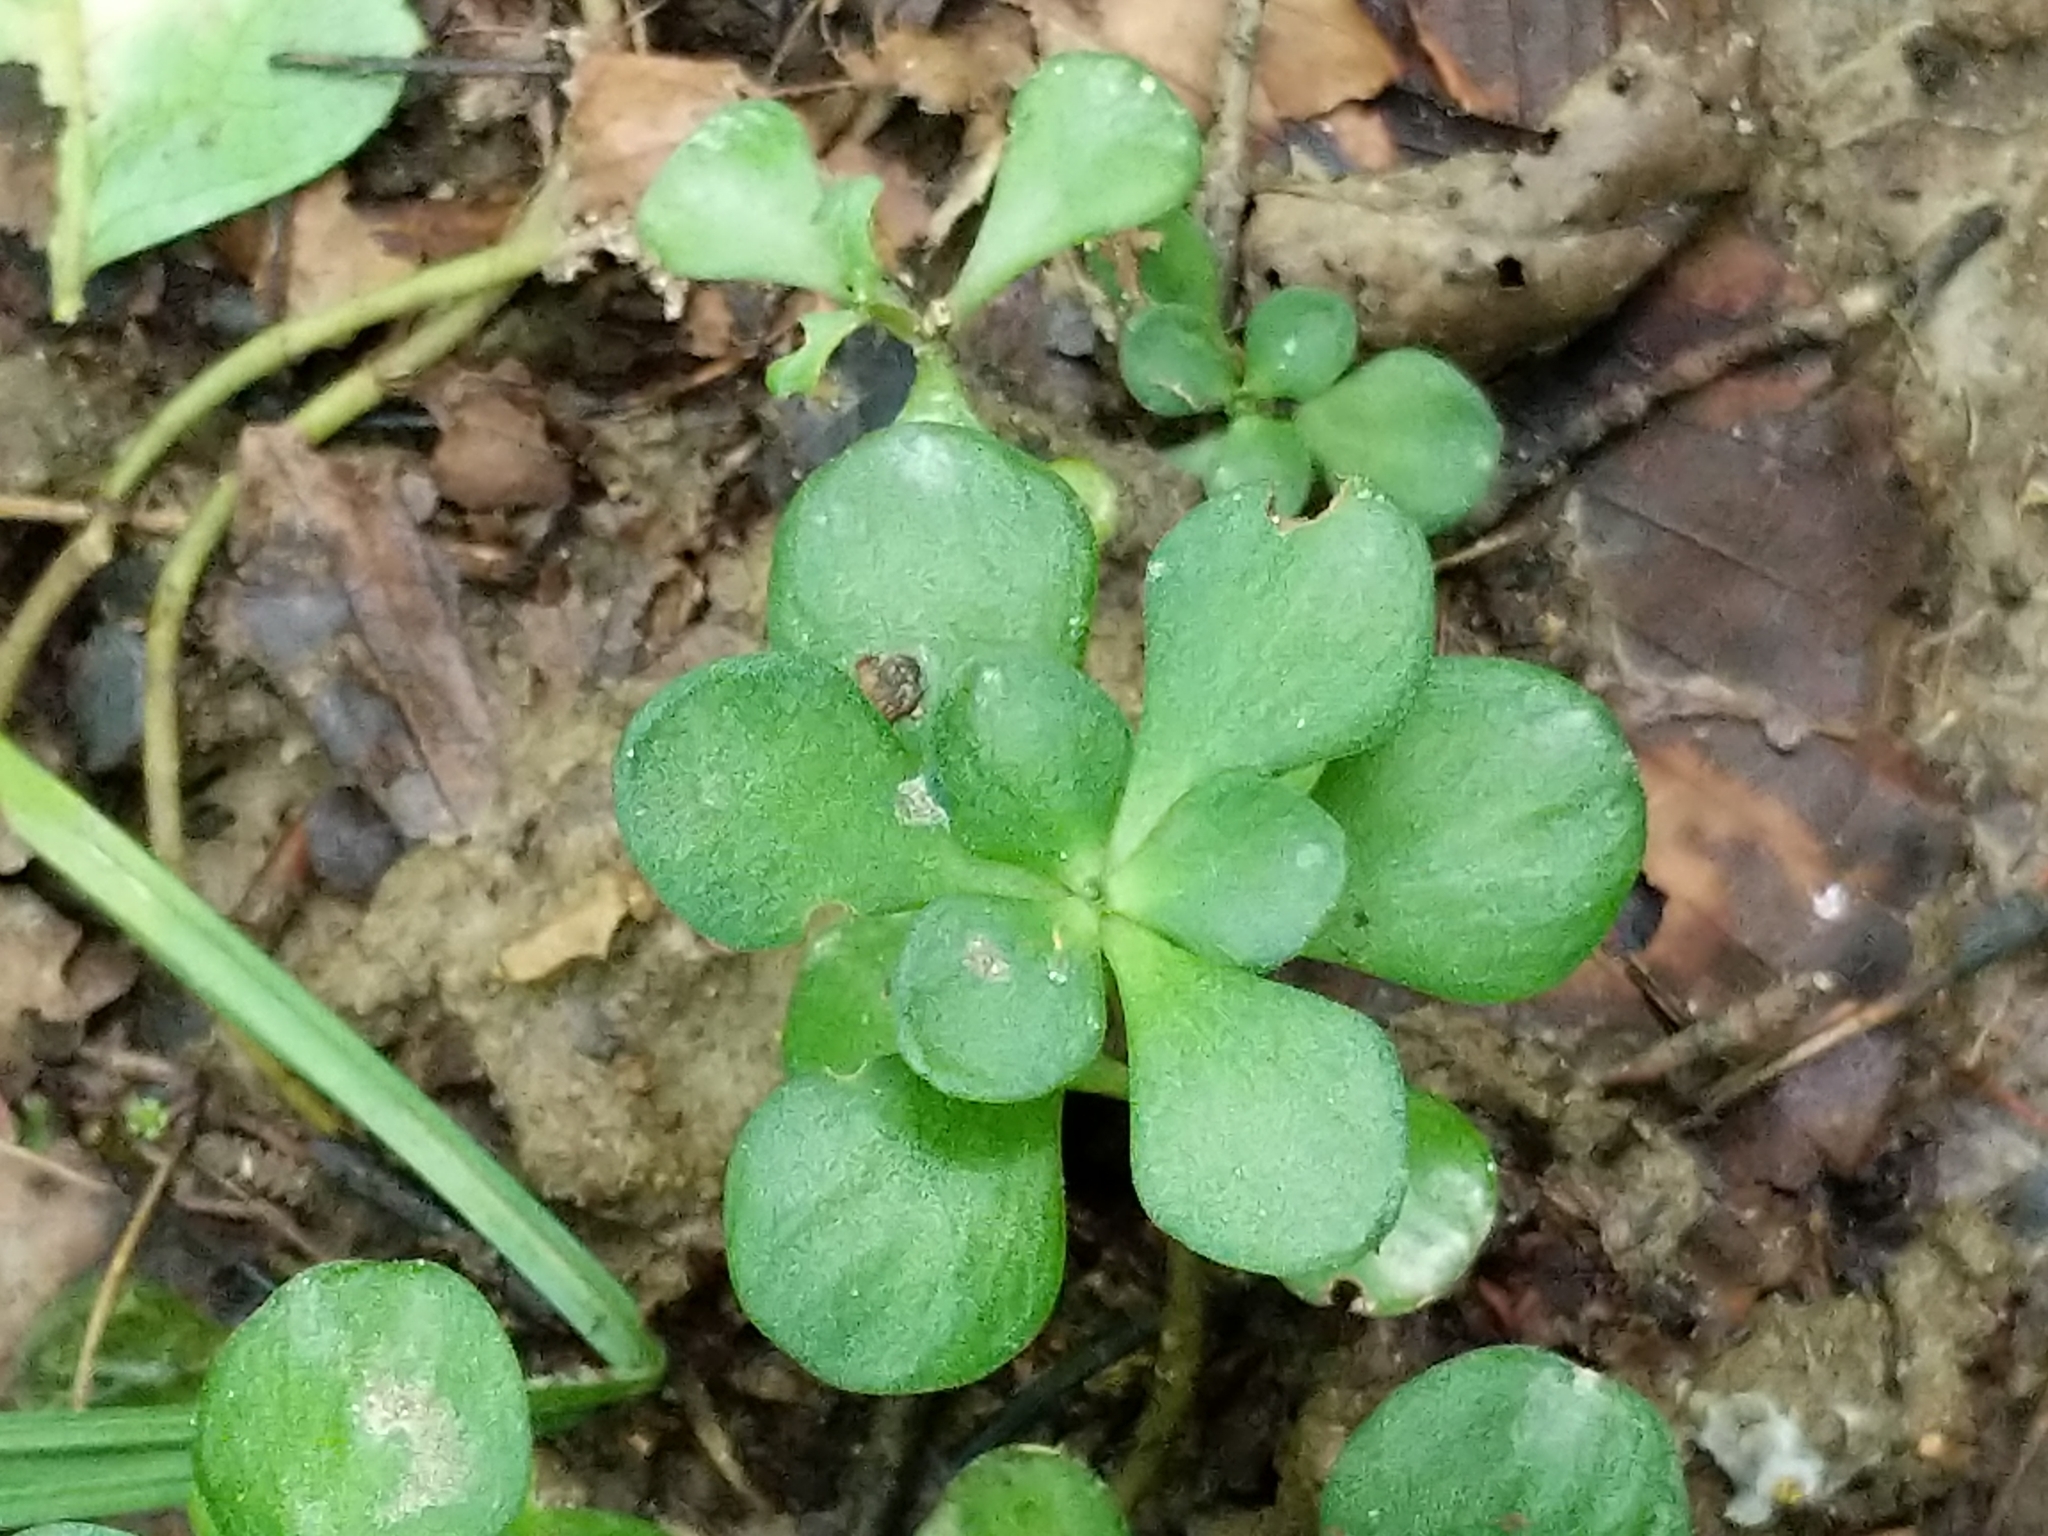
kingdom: Plantae
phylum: Tracheophyta
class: Magnoliopsida
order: Saxifragales
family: Crassulaceae
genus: Sedum
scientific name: Sedum ternatum
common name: Wild stonecrop
